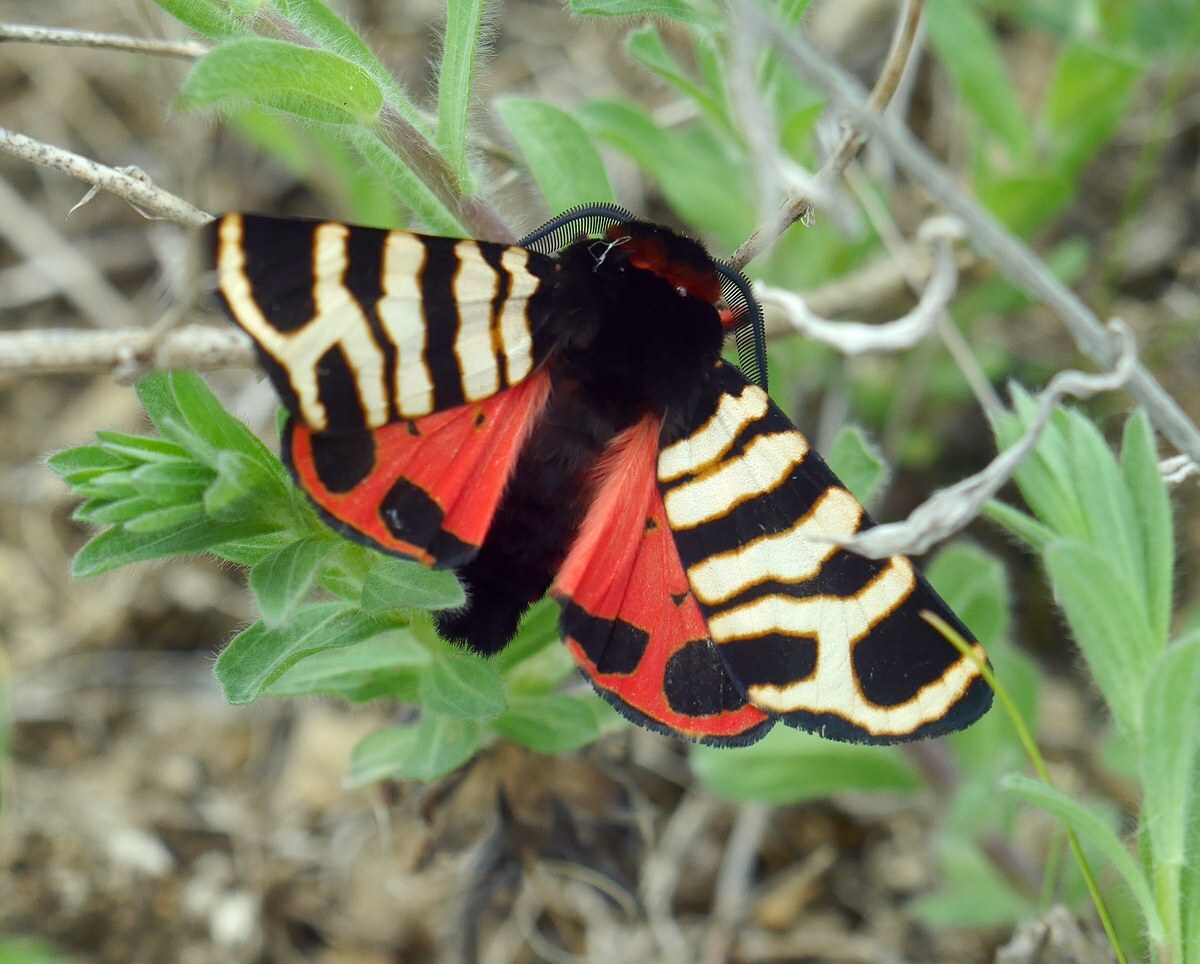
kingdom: Animalia
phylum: Arthropoda
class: Insecta
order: Lepidoptera
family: Erebidae
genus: Eucharia
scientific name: Eucharia festiva
